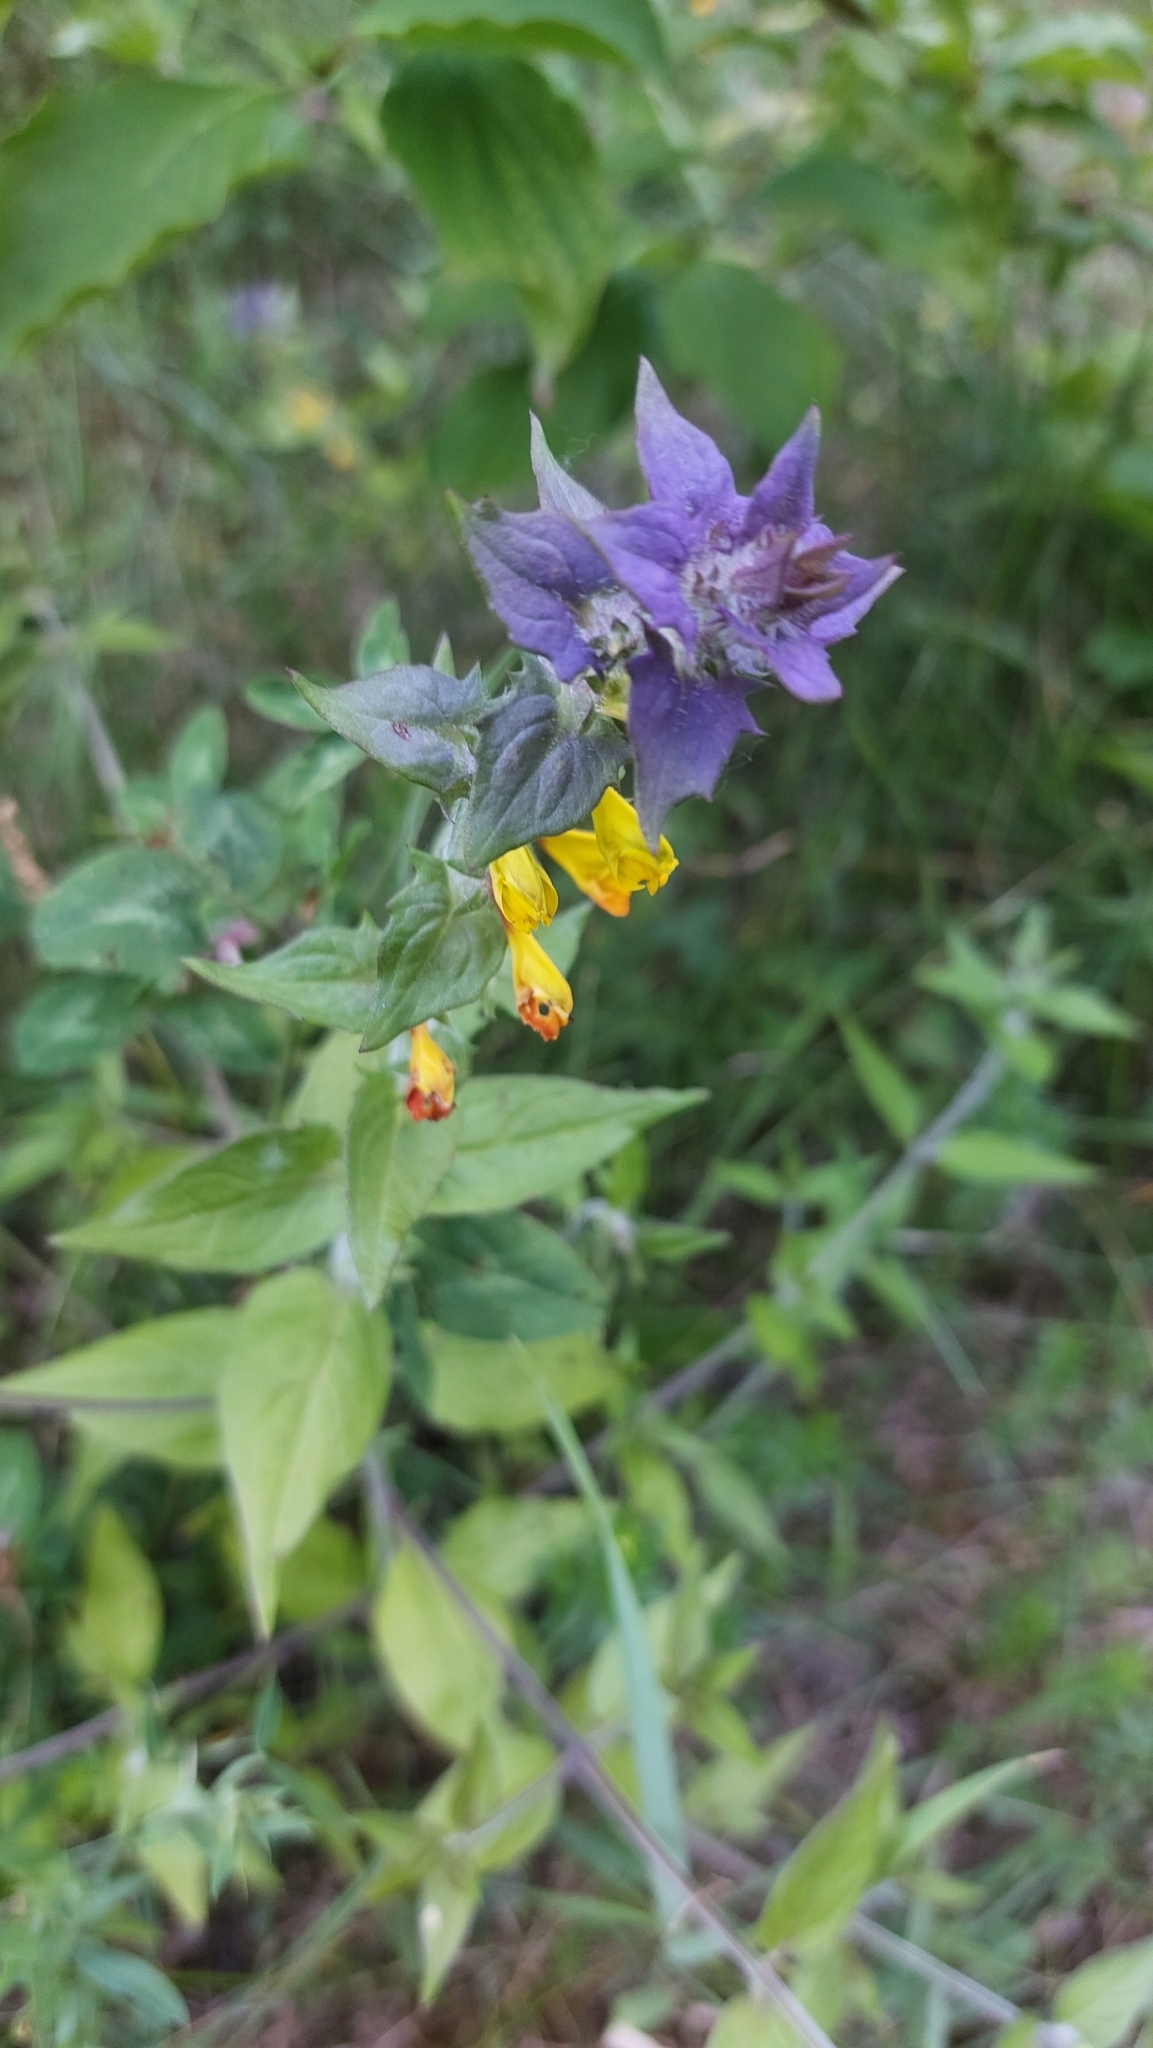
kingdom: Plantae
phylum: Tracheophyta
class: Magnoliopsida
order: Lamiales
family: Orobanchaceae
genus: Melampyrum
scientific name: Melampyrum nemorosum
